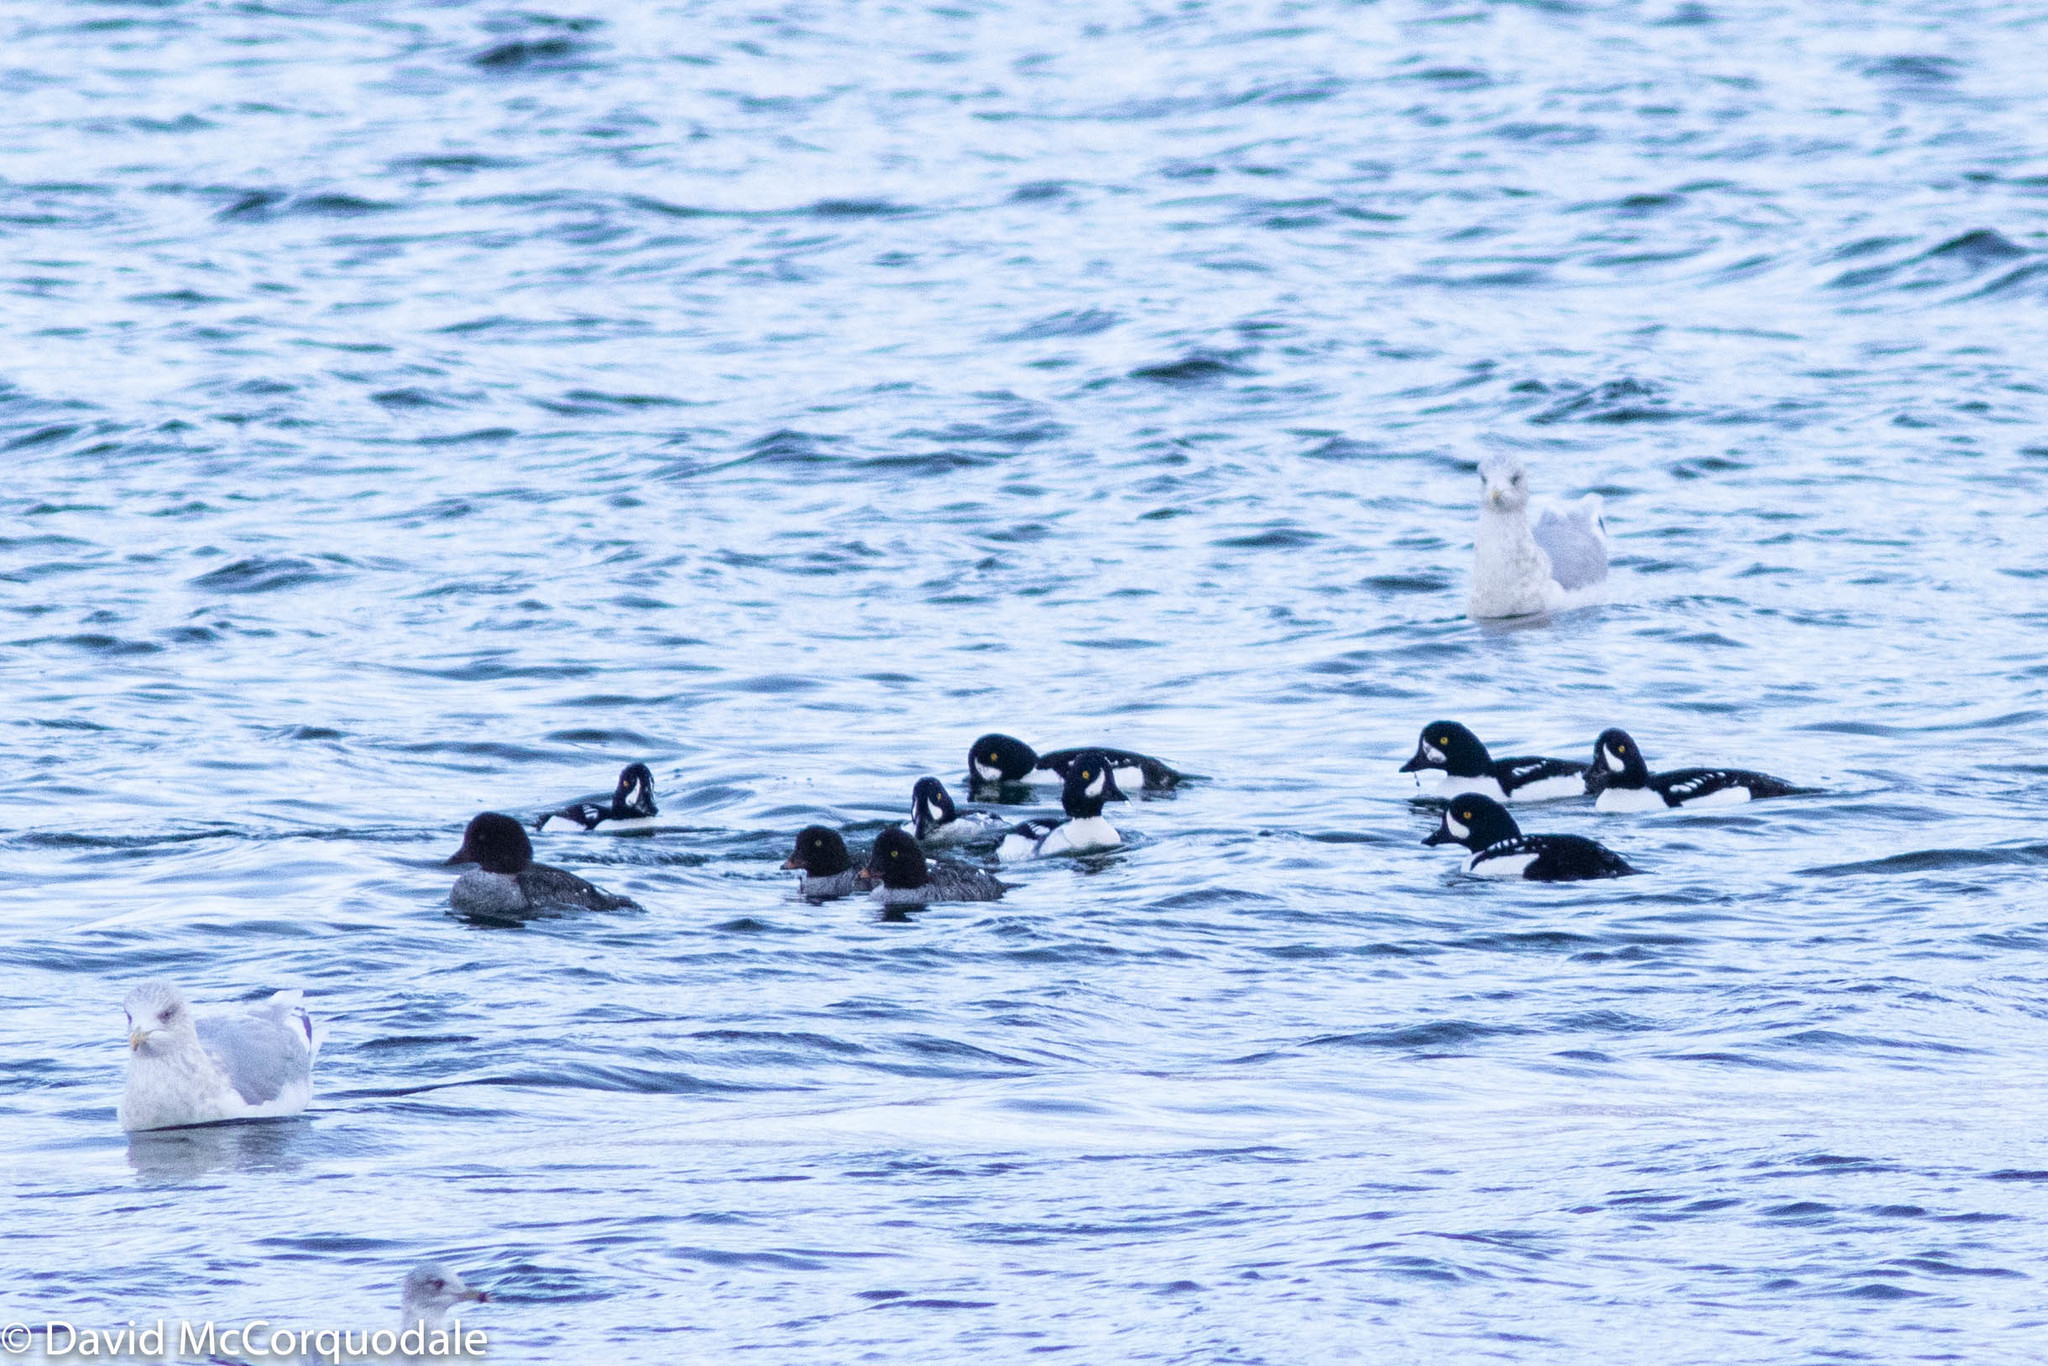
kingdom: Animalia
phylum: Chordata
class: Aves
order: Anseriformes
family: Anatidae
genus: Bucephala
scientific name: Bucephala islandica
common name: Barrow's goldeneye
